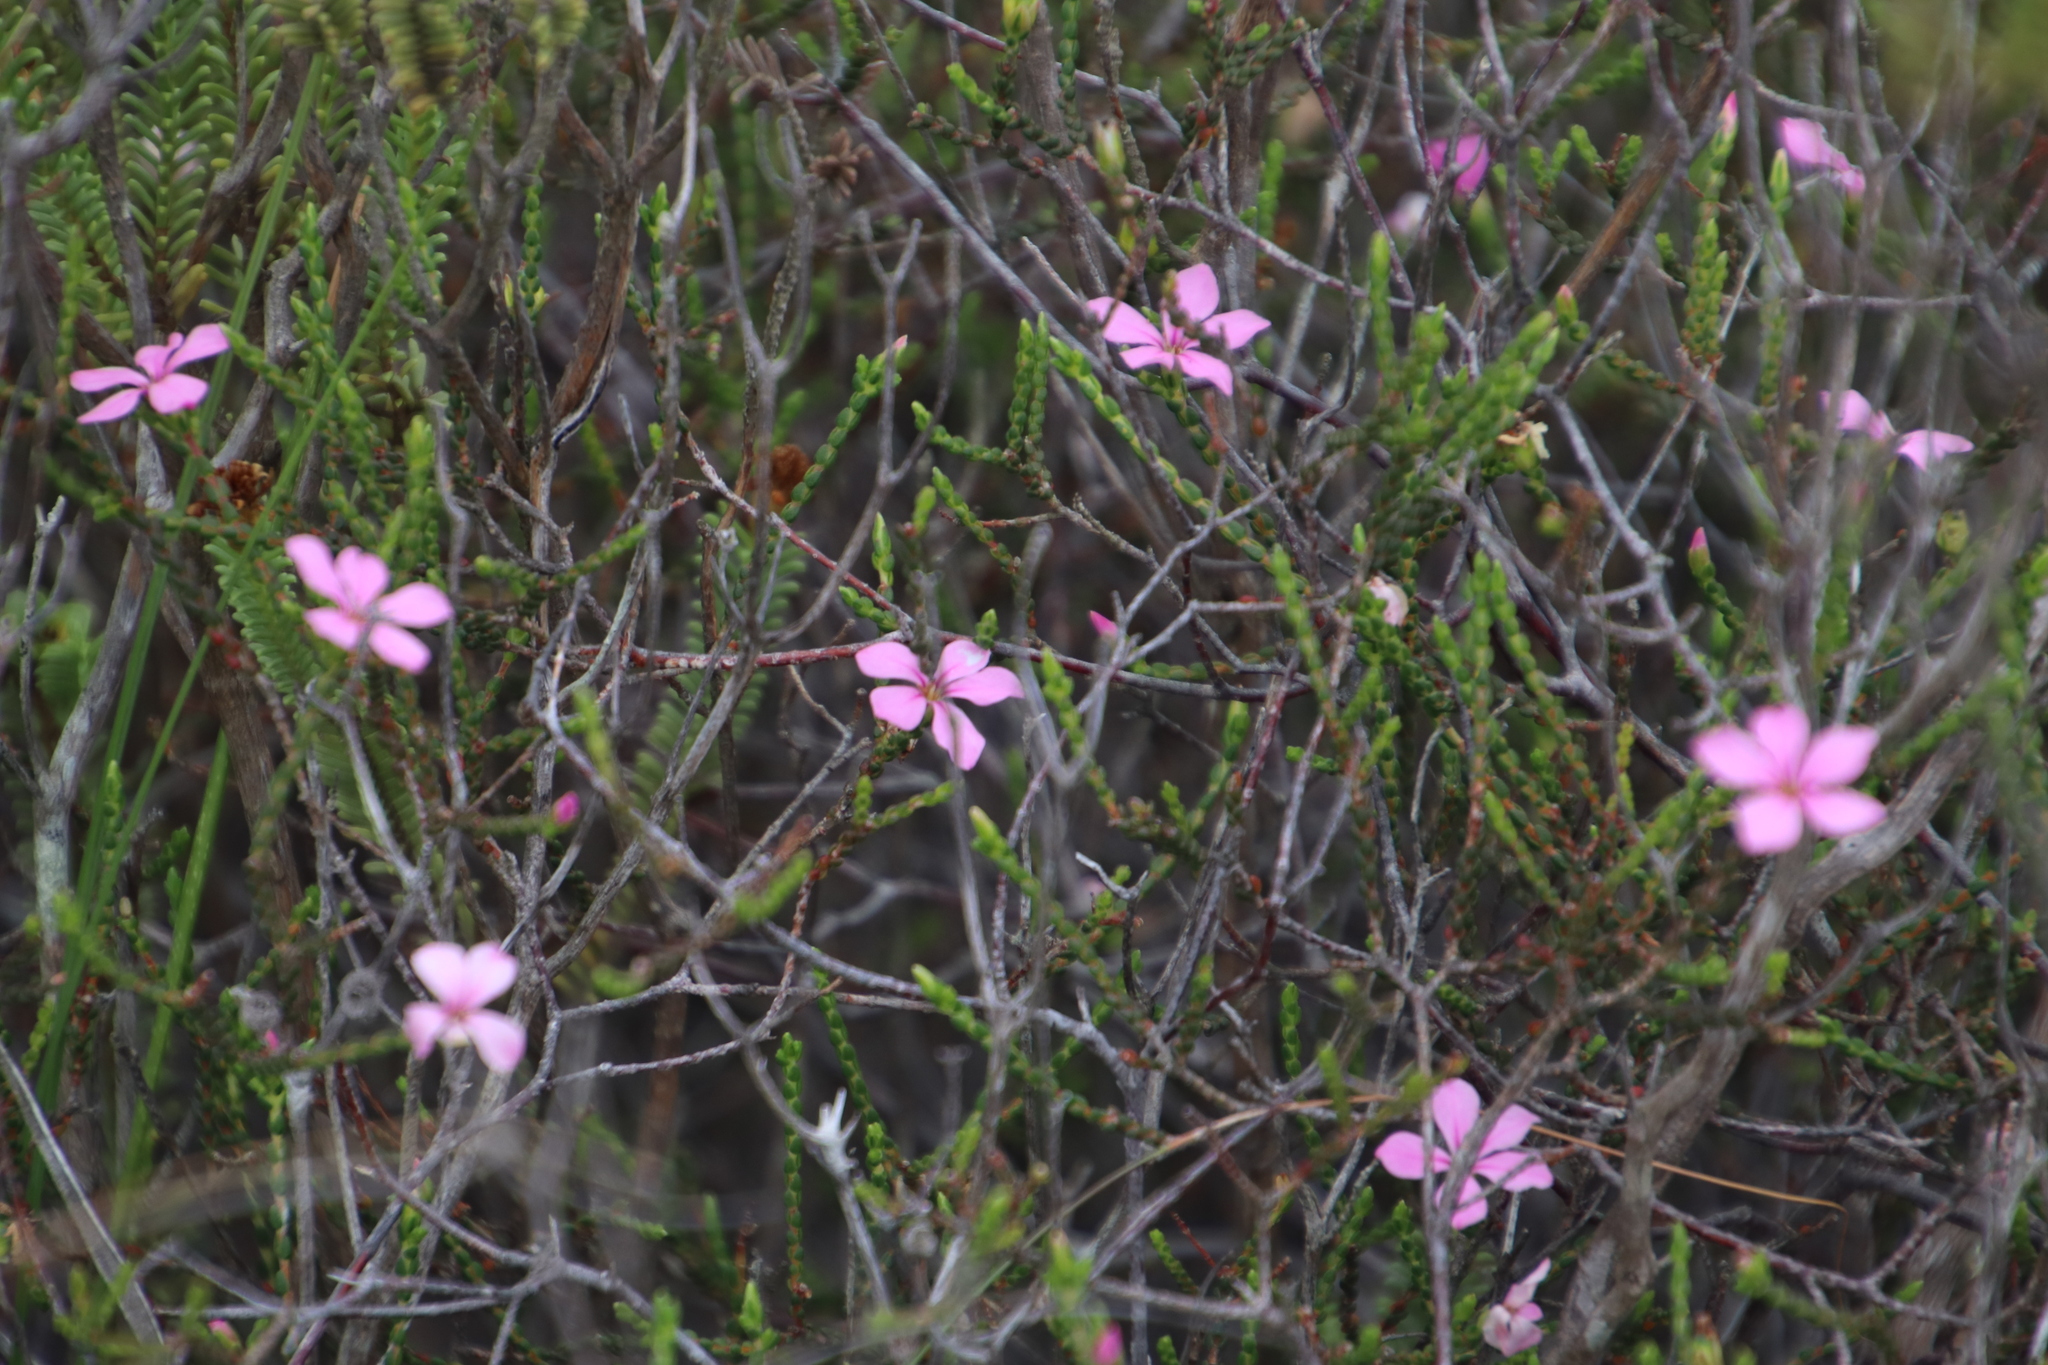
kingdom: Plantae
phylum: Tracheophyta
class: Magnoliopsida
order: Sapindales
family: Rutaceae
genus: Acmadenia
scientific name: Acmadenia macropetala
